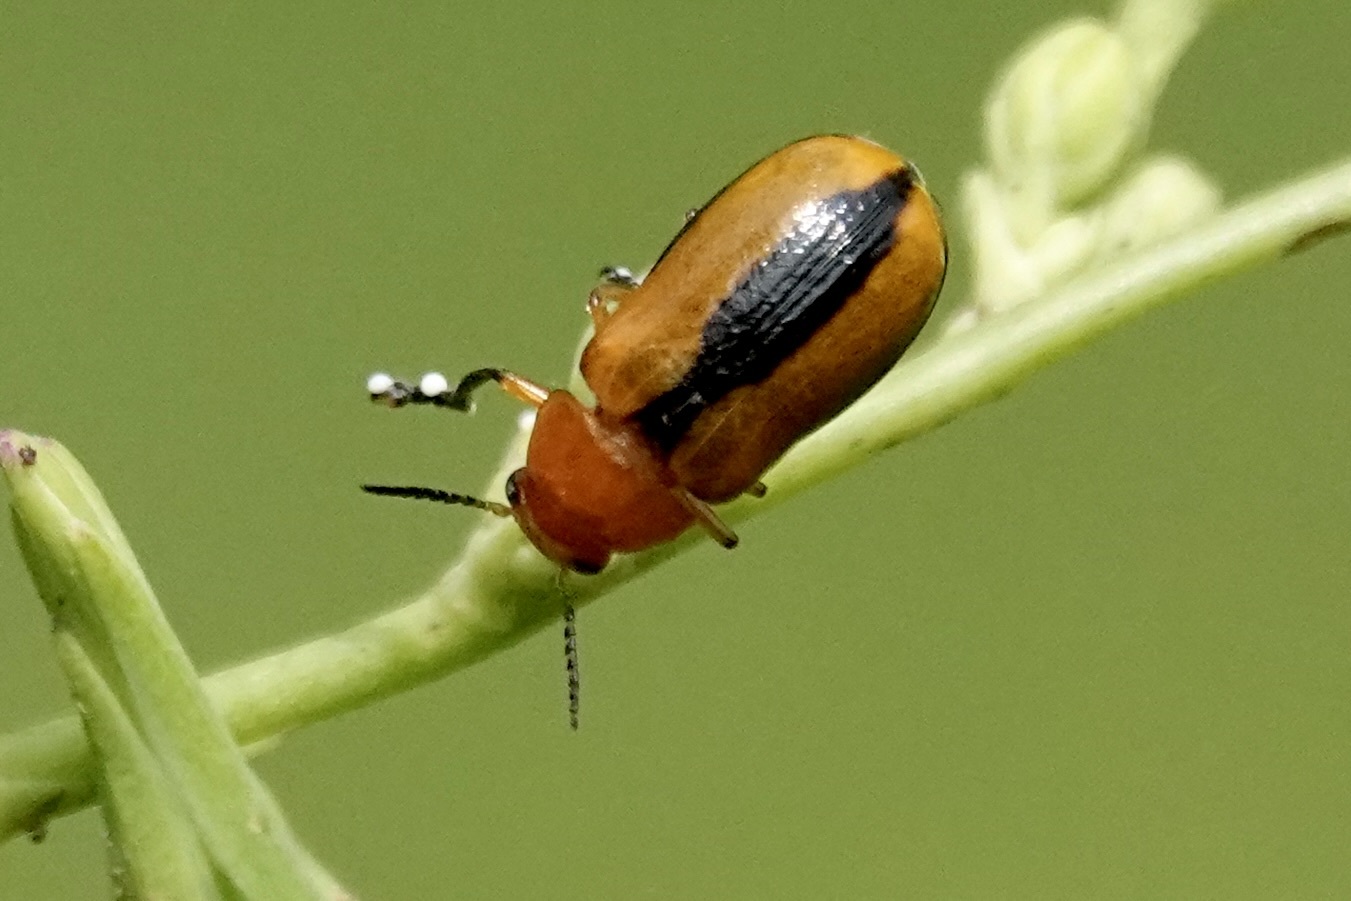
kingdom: Animalia
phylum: Arthropoda
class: Insecta
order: Coleoptera
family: Chrysomelidae
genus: Anomoea
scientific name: Anomoea laticlavia
